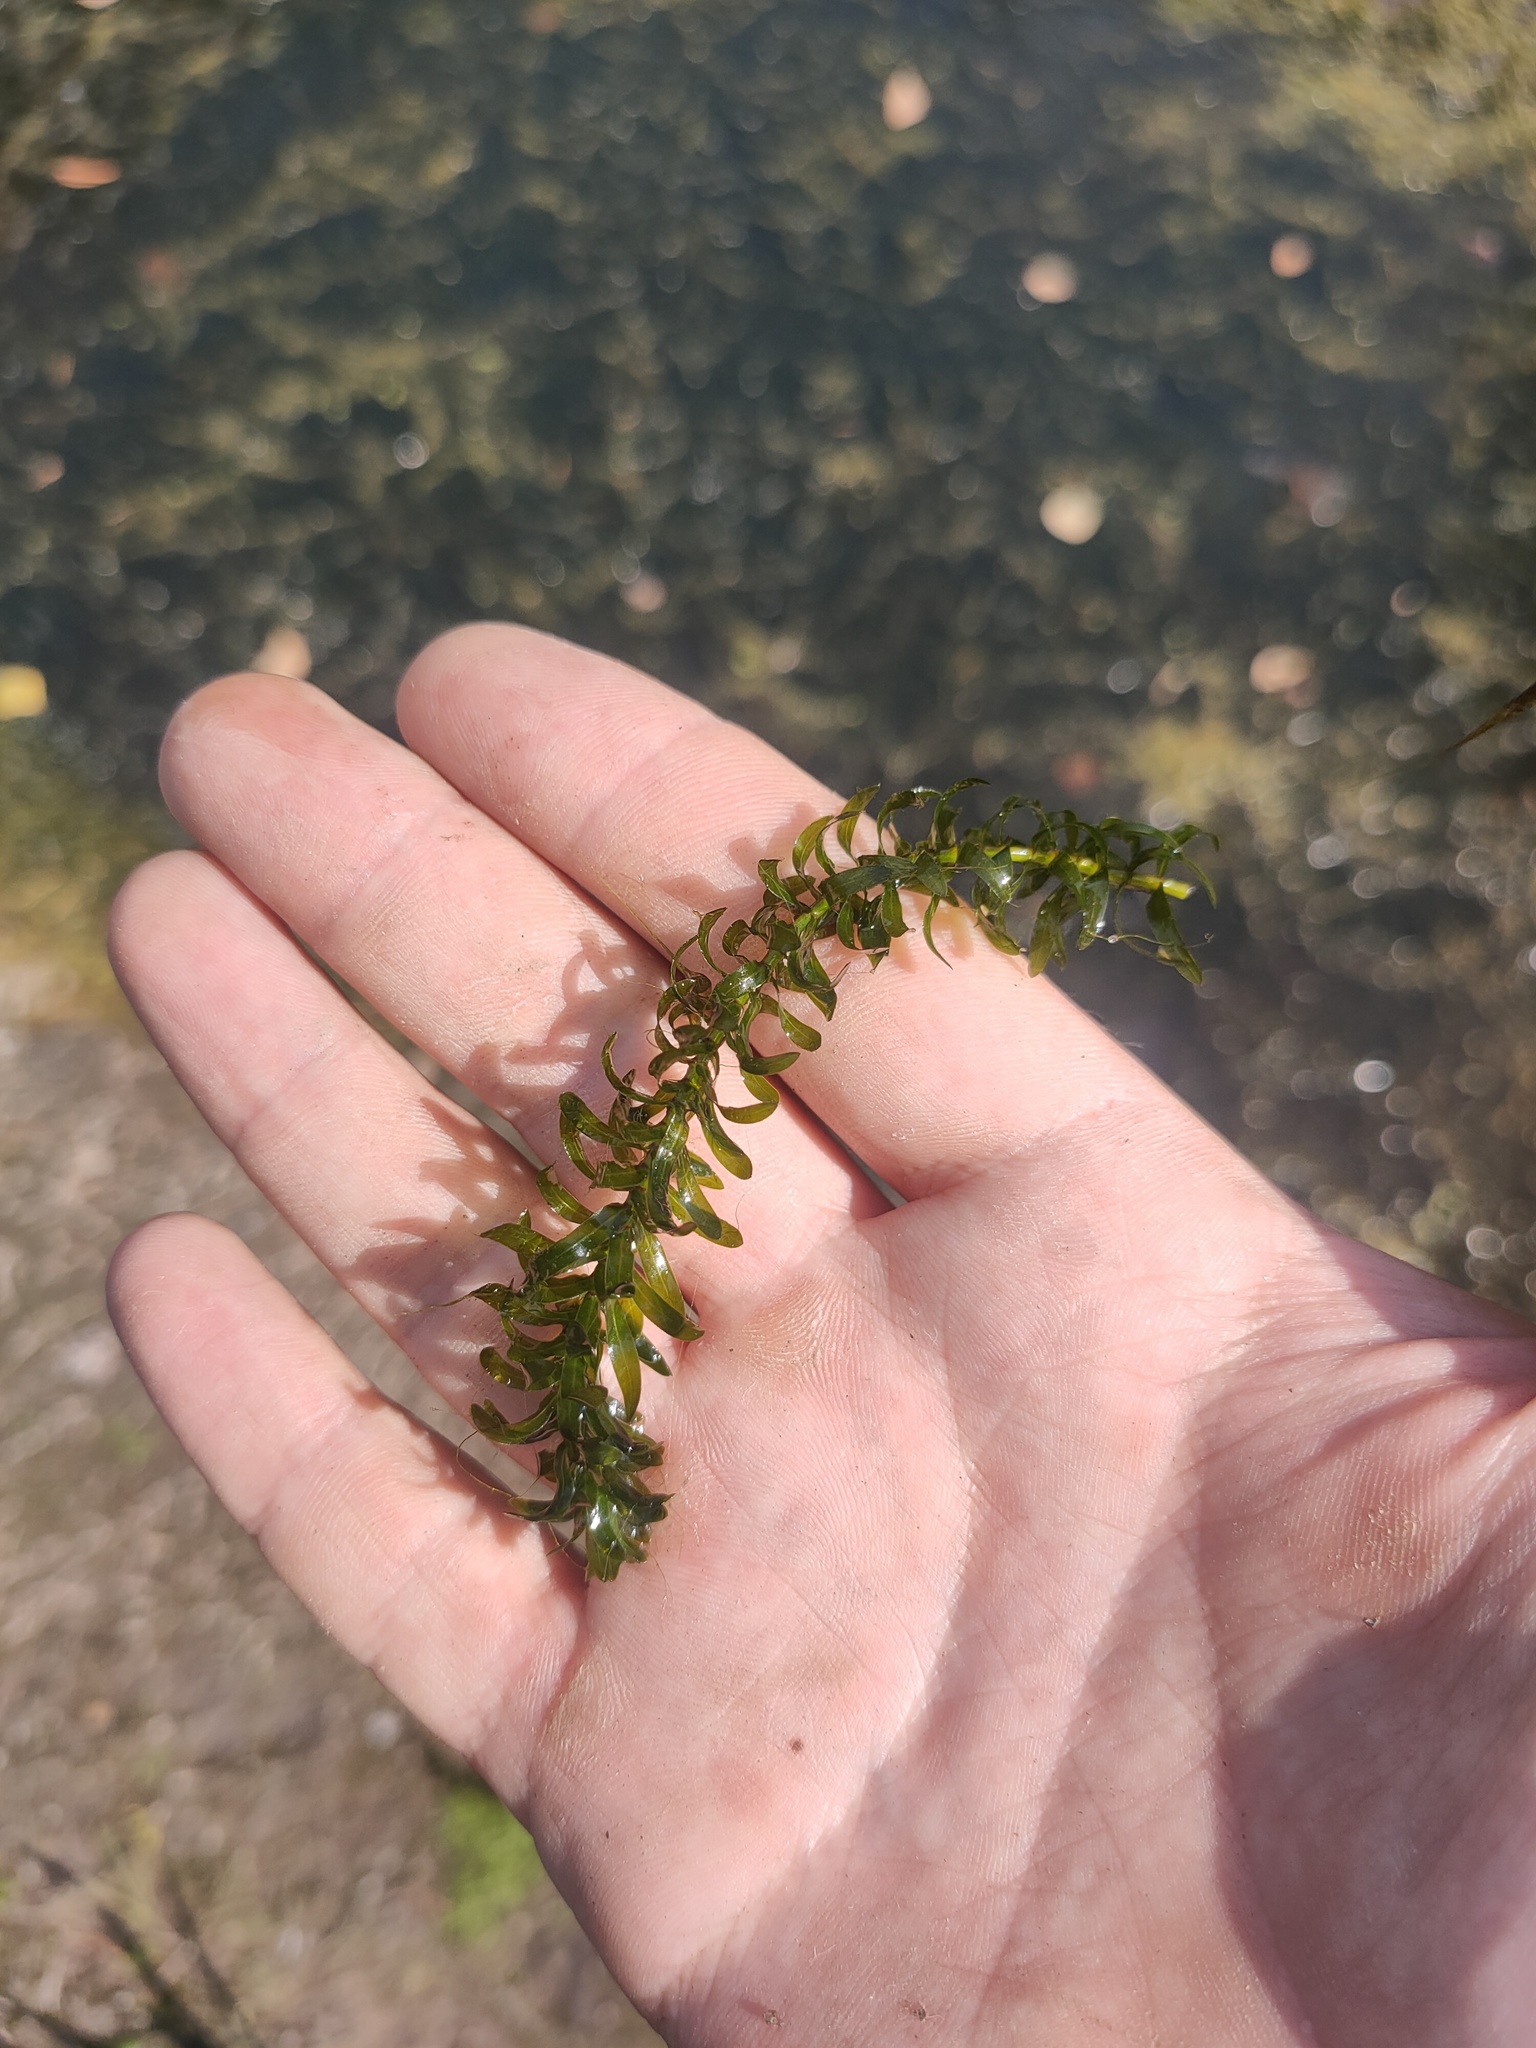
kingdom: Plantae
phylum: Tracheophyta
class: Liliopsida
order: Alismatales
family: Hydrocharitaceae
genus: Elodea
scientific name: Elodea canadensis
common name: Canadian waterweed
